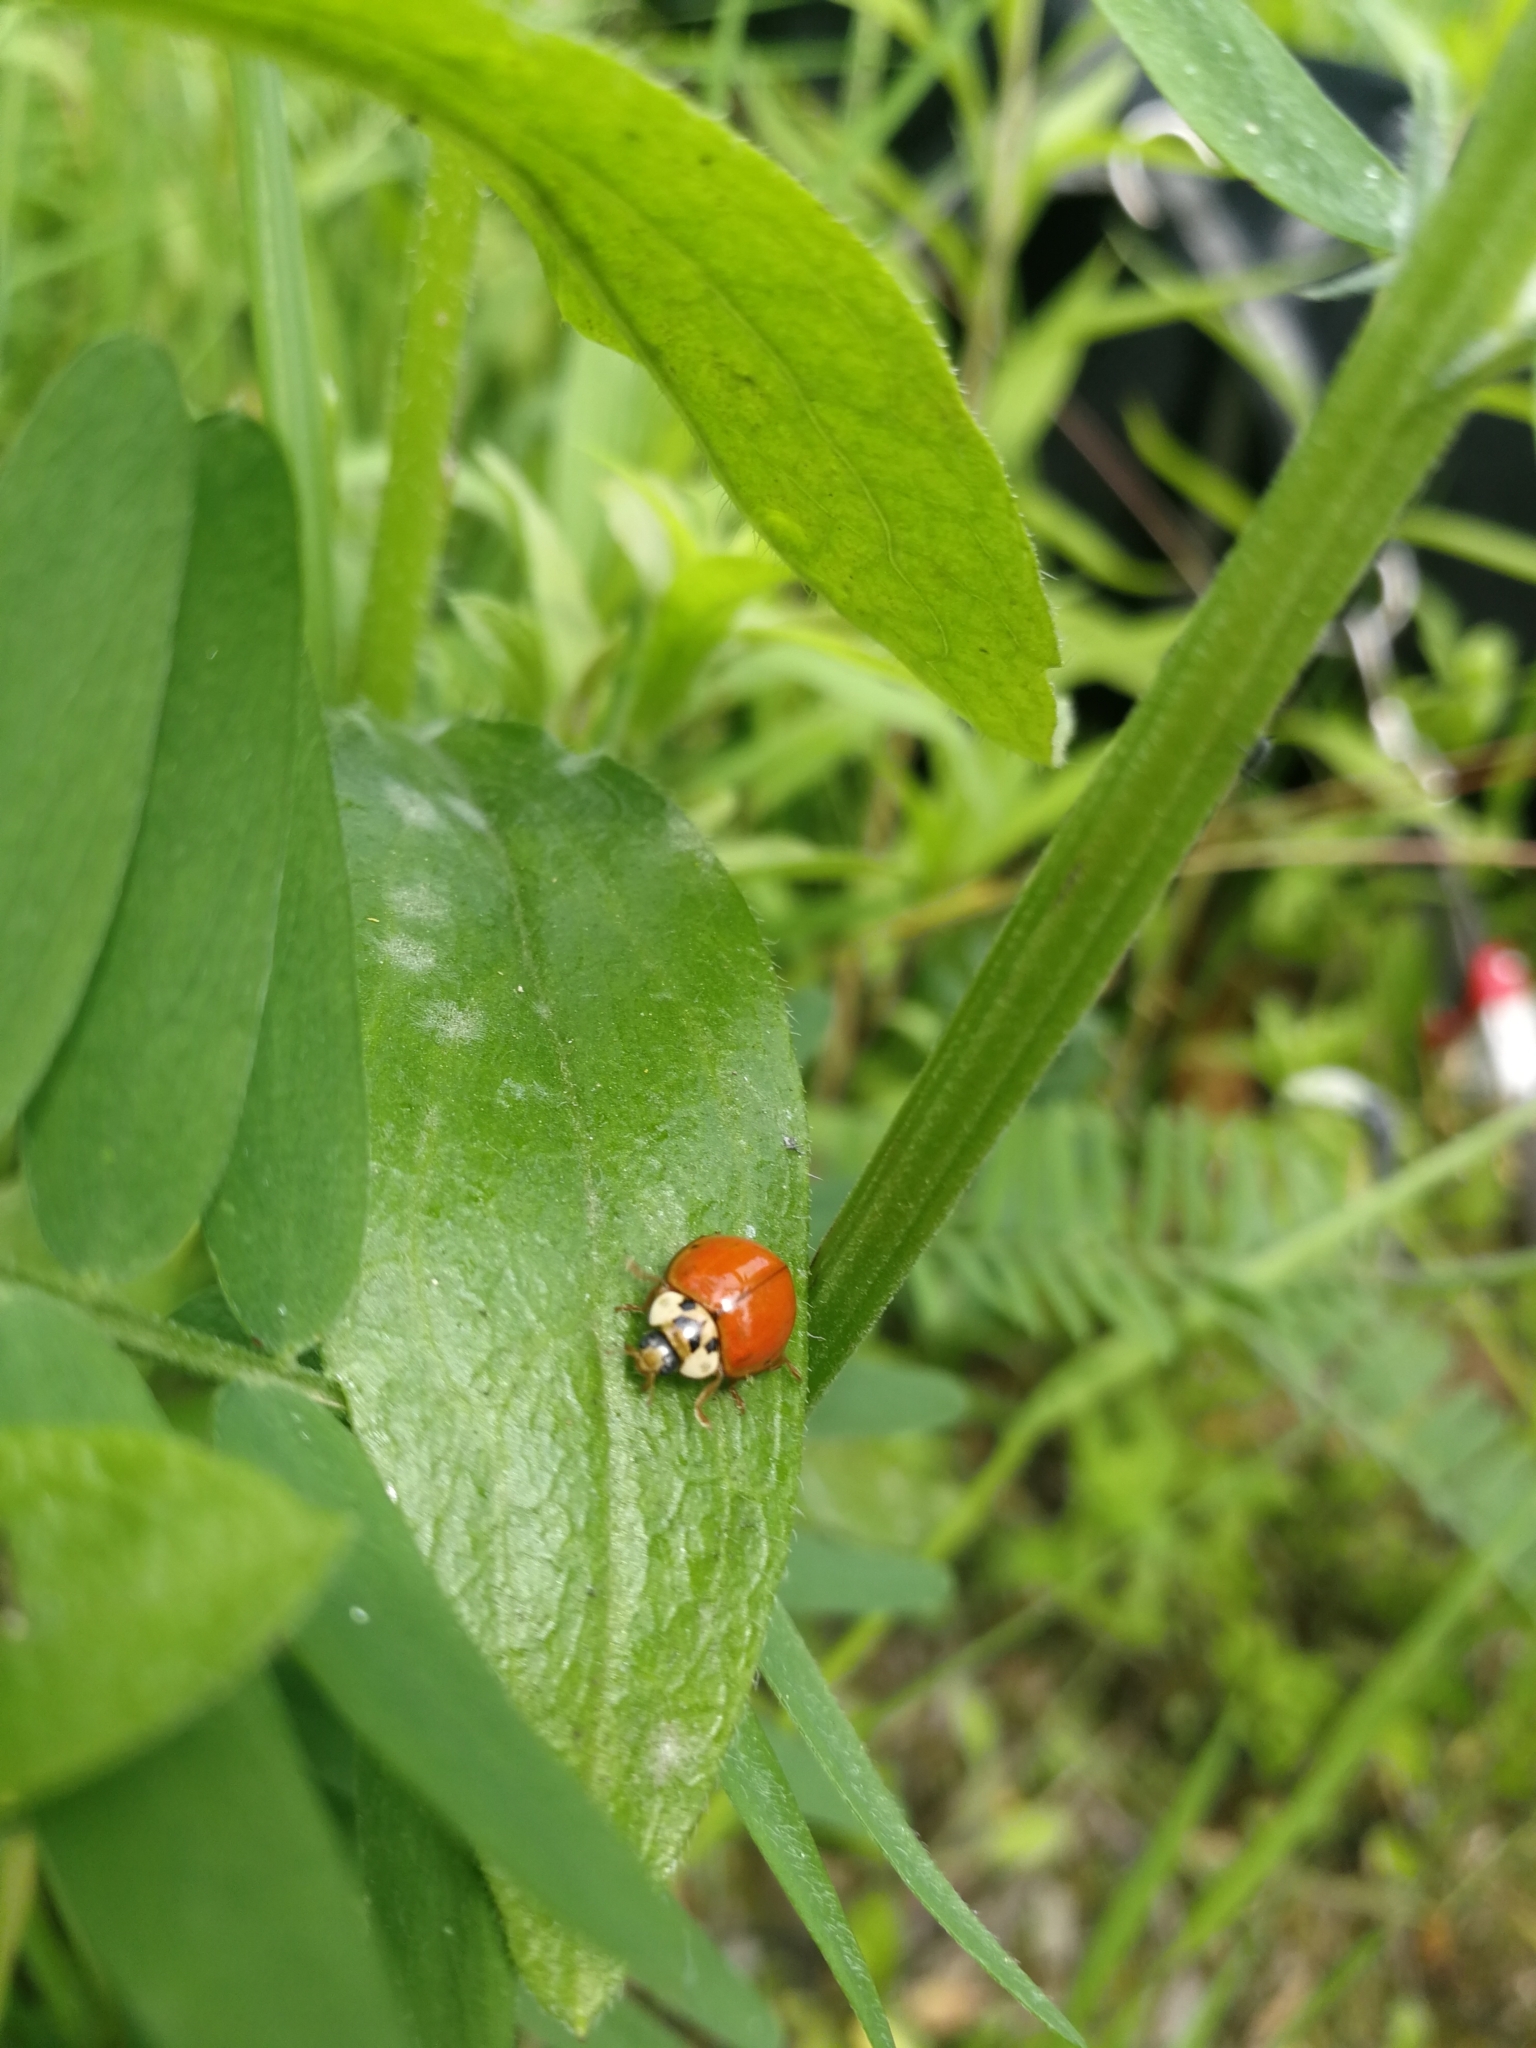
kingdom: Animalia
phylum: Arthropoda
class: Insecta
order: Coleoptera
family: Coccinellidae
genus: Harmonia
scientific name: Harmonia axyridis
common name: Harlequin ladybird
